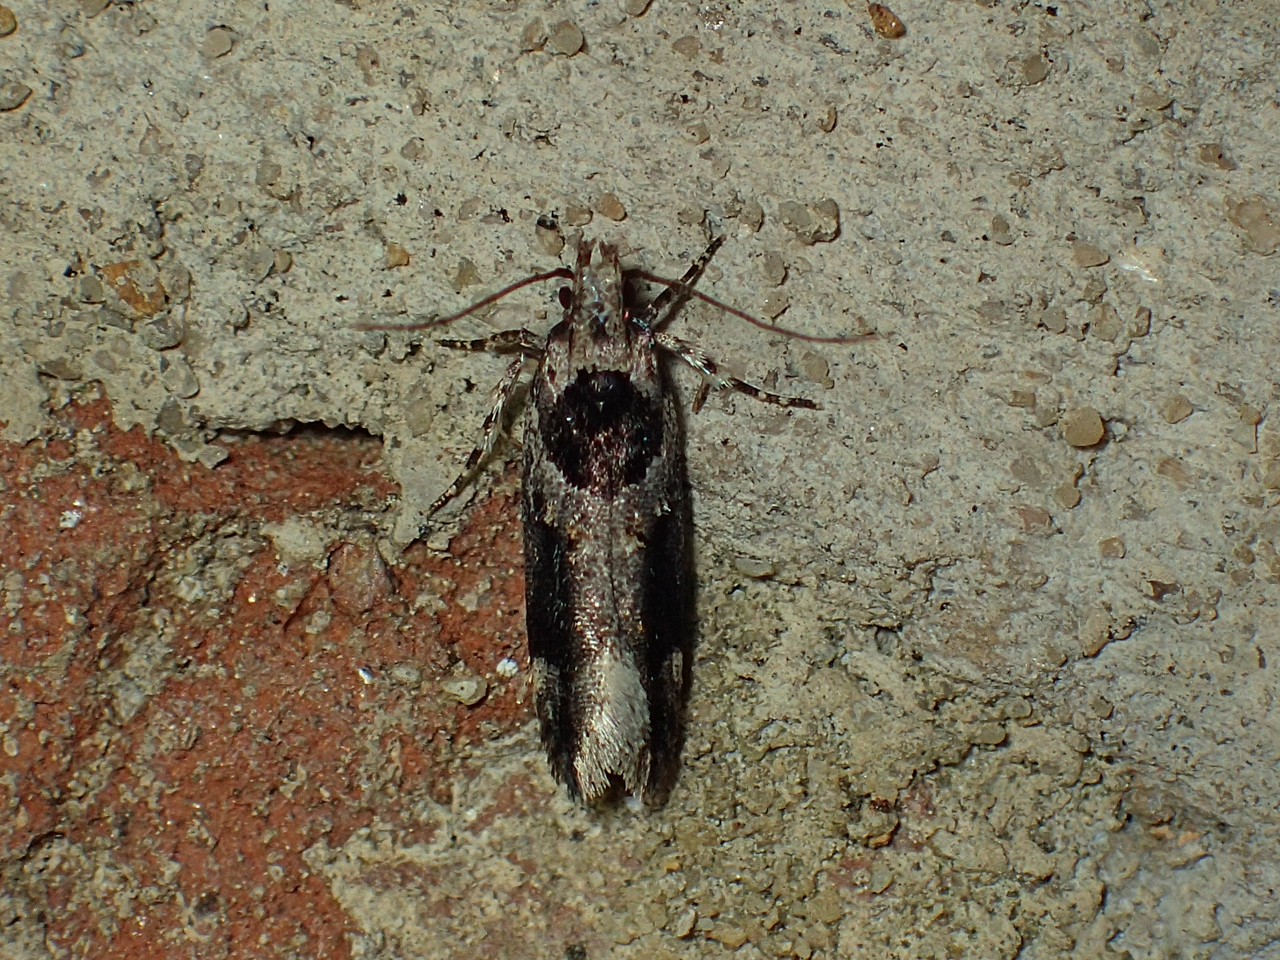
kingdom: Animalia
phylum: Arthropoda
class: Insecta
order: Lepidoptera
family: Gelechiidae
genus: Pseudochelaria
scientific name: Pseudochelaria walsinghami
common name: Walsingham's moth
